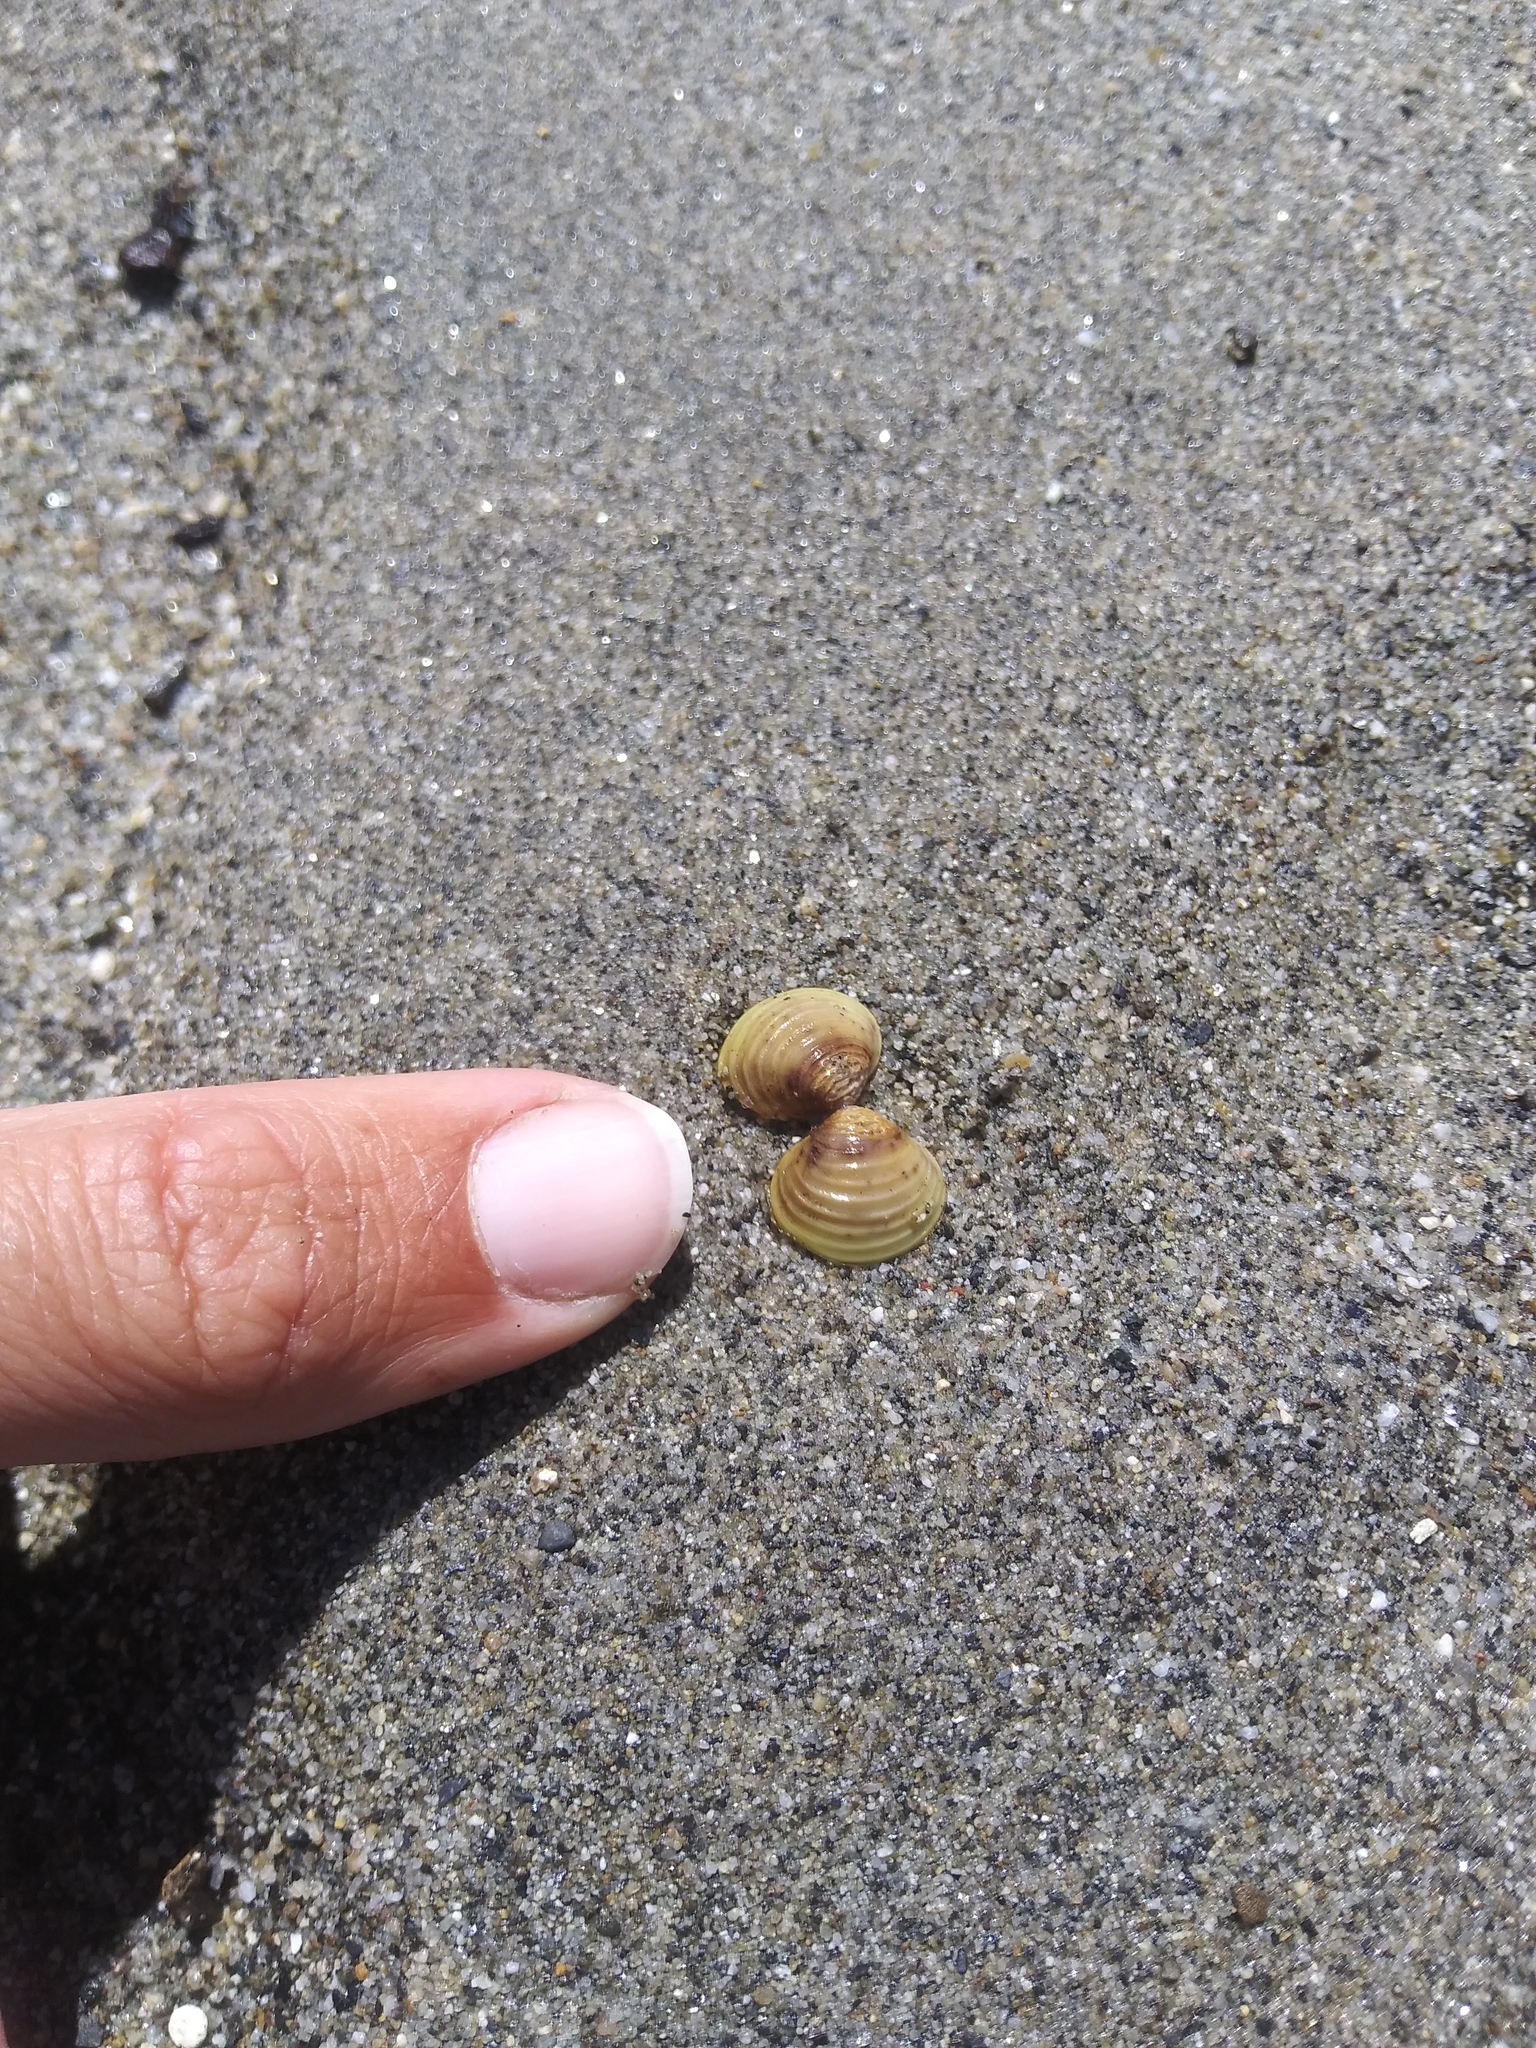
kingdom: Animalia
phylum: Mollusca
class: Bivalvia
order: Venerida
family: Cyrenidae
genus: Corbicula
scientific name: Corbicula fluminea
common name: Asian clam
